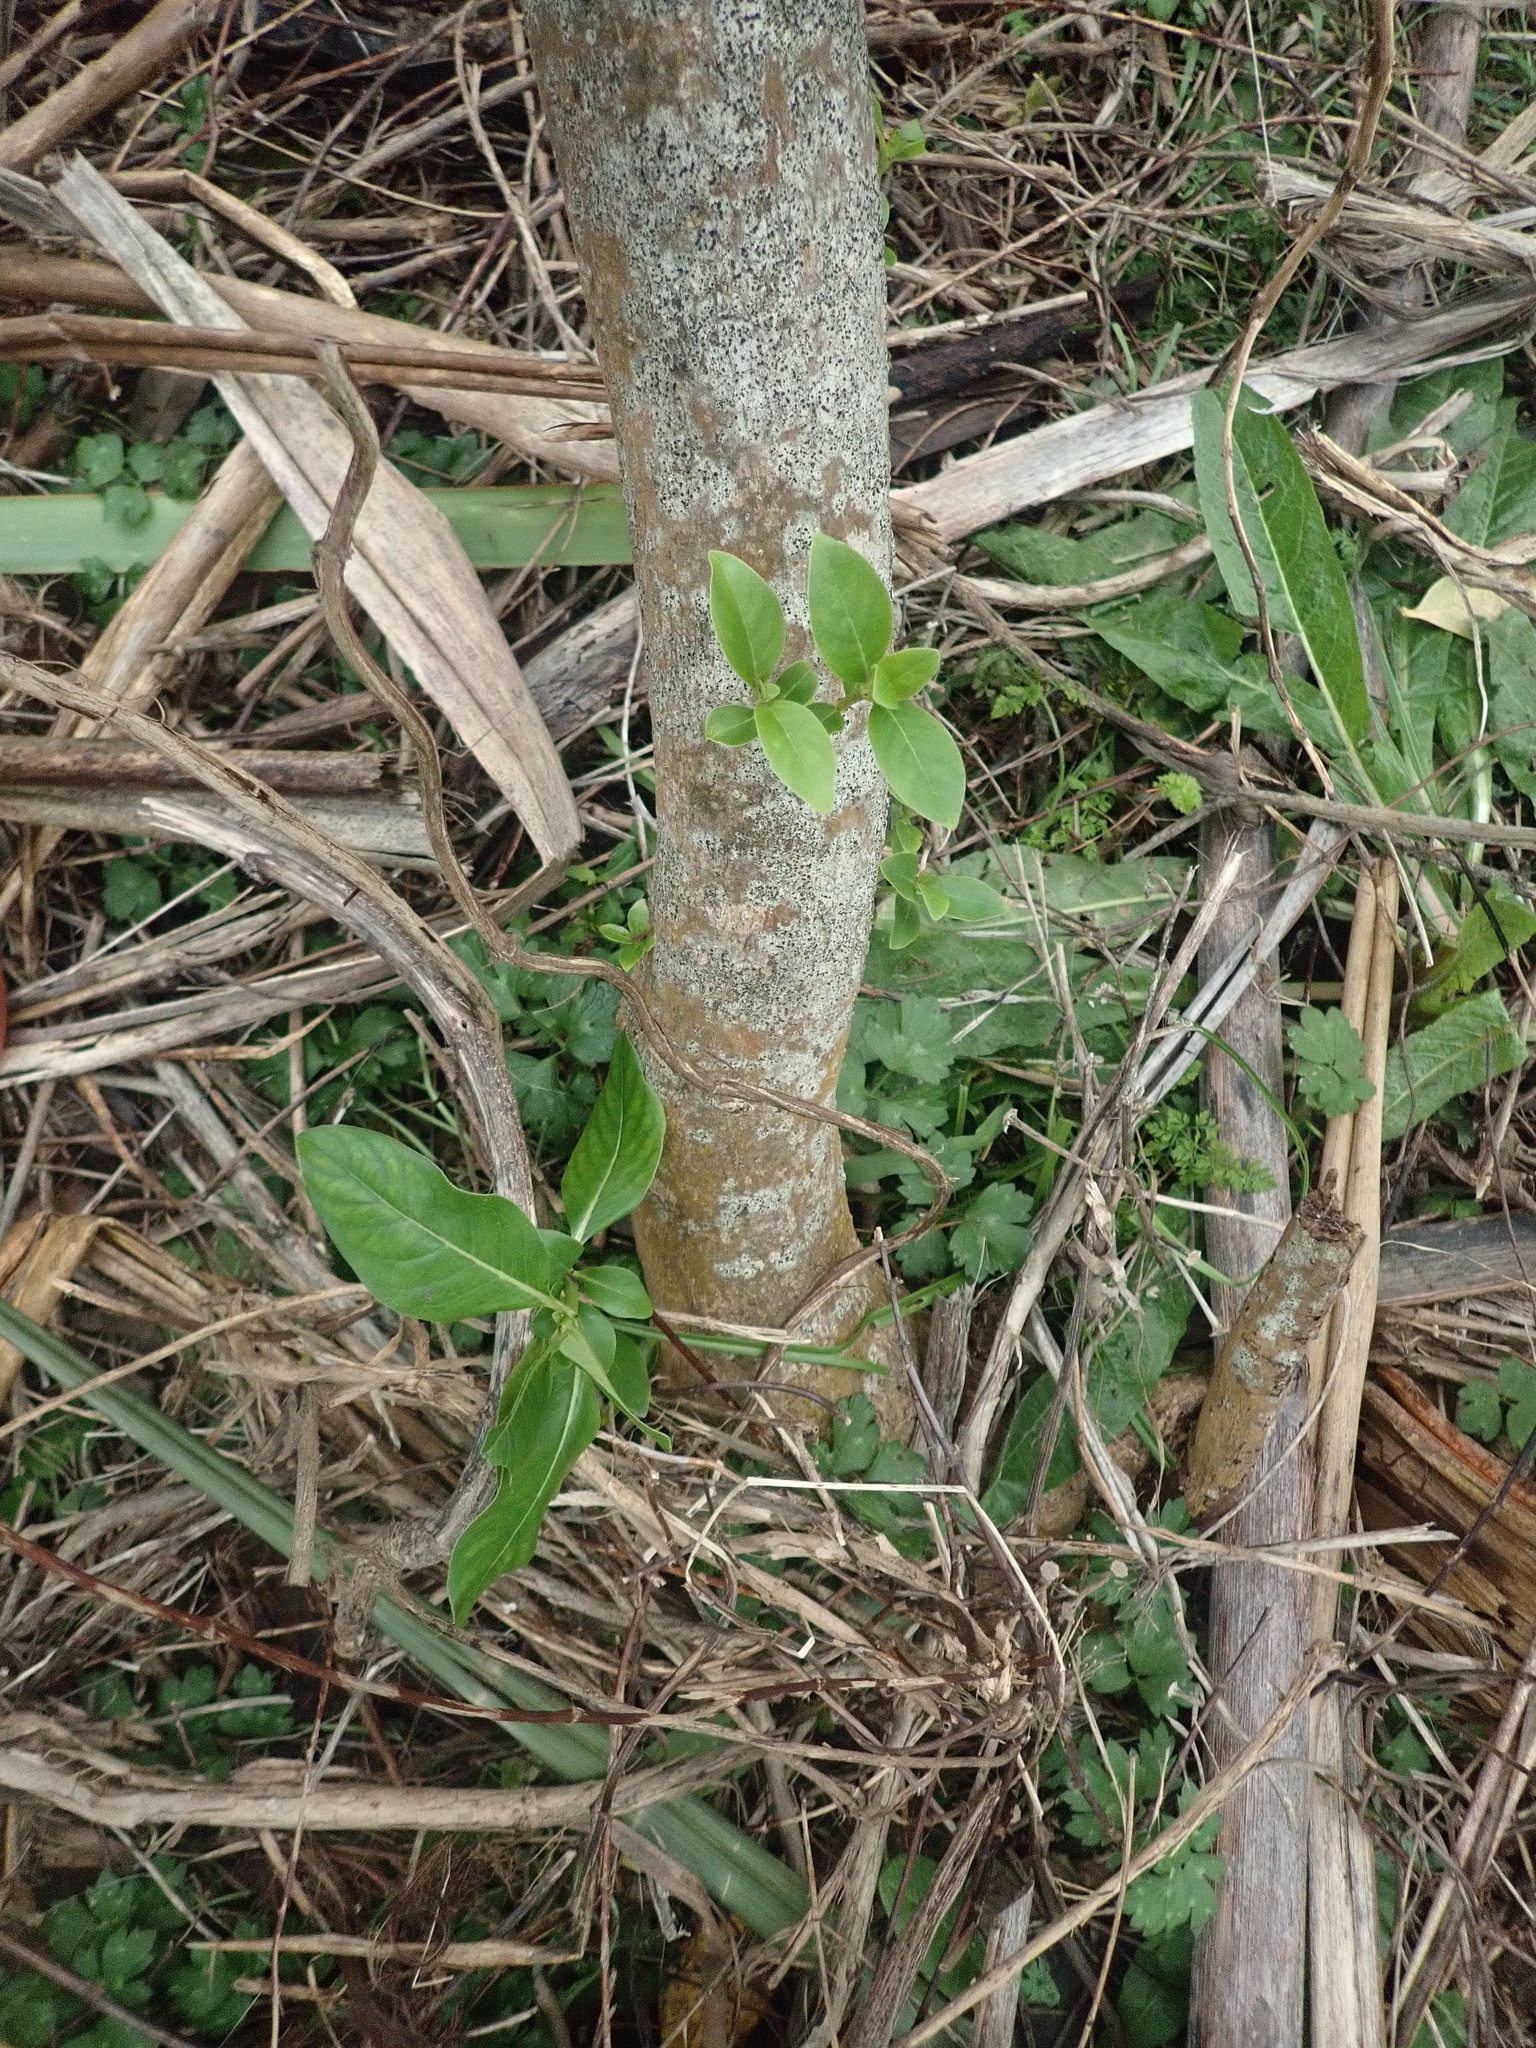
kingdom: Plantae
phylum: Tracheophyta
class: Magnoliopsida
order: Gentianales
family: Rubiaceae
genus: Coprosma
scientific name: Coprosma robusta
